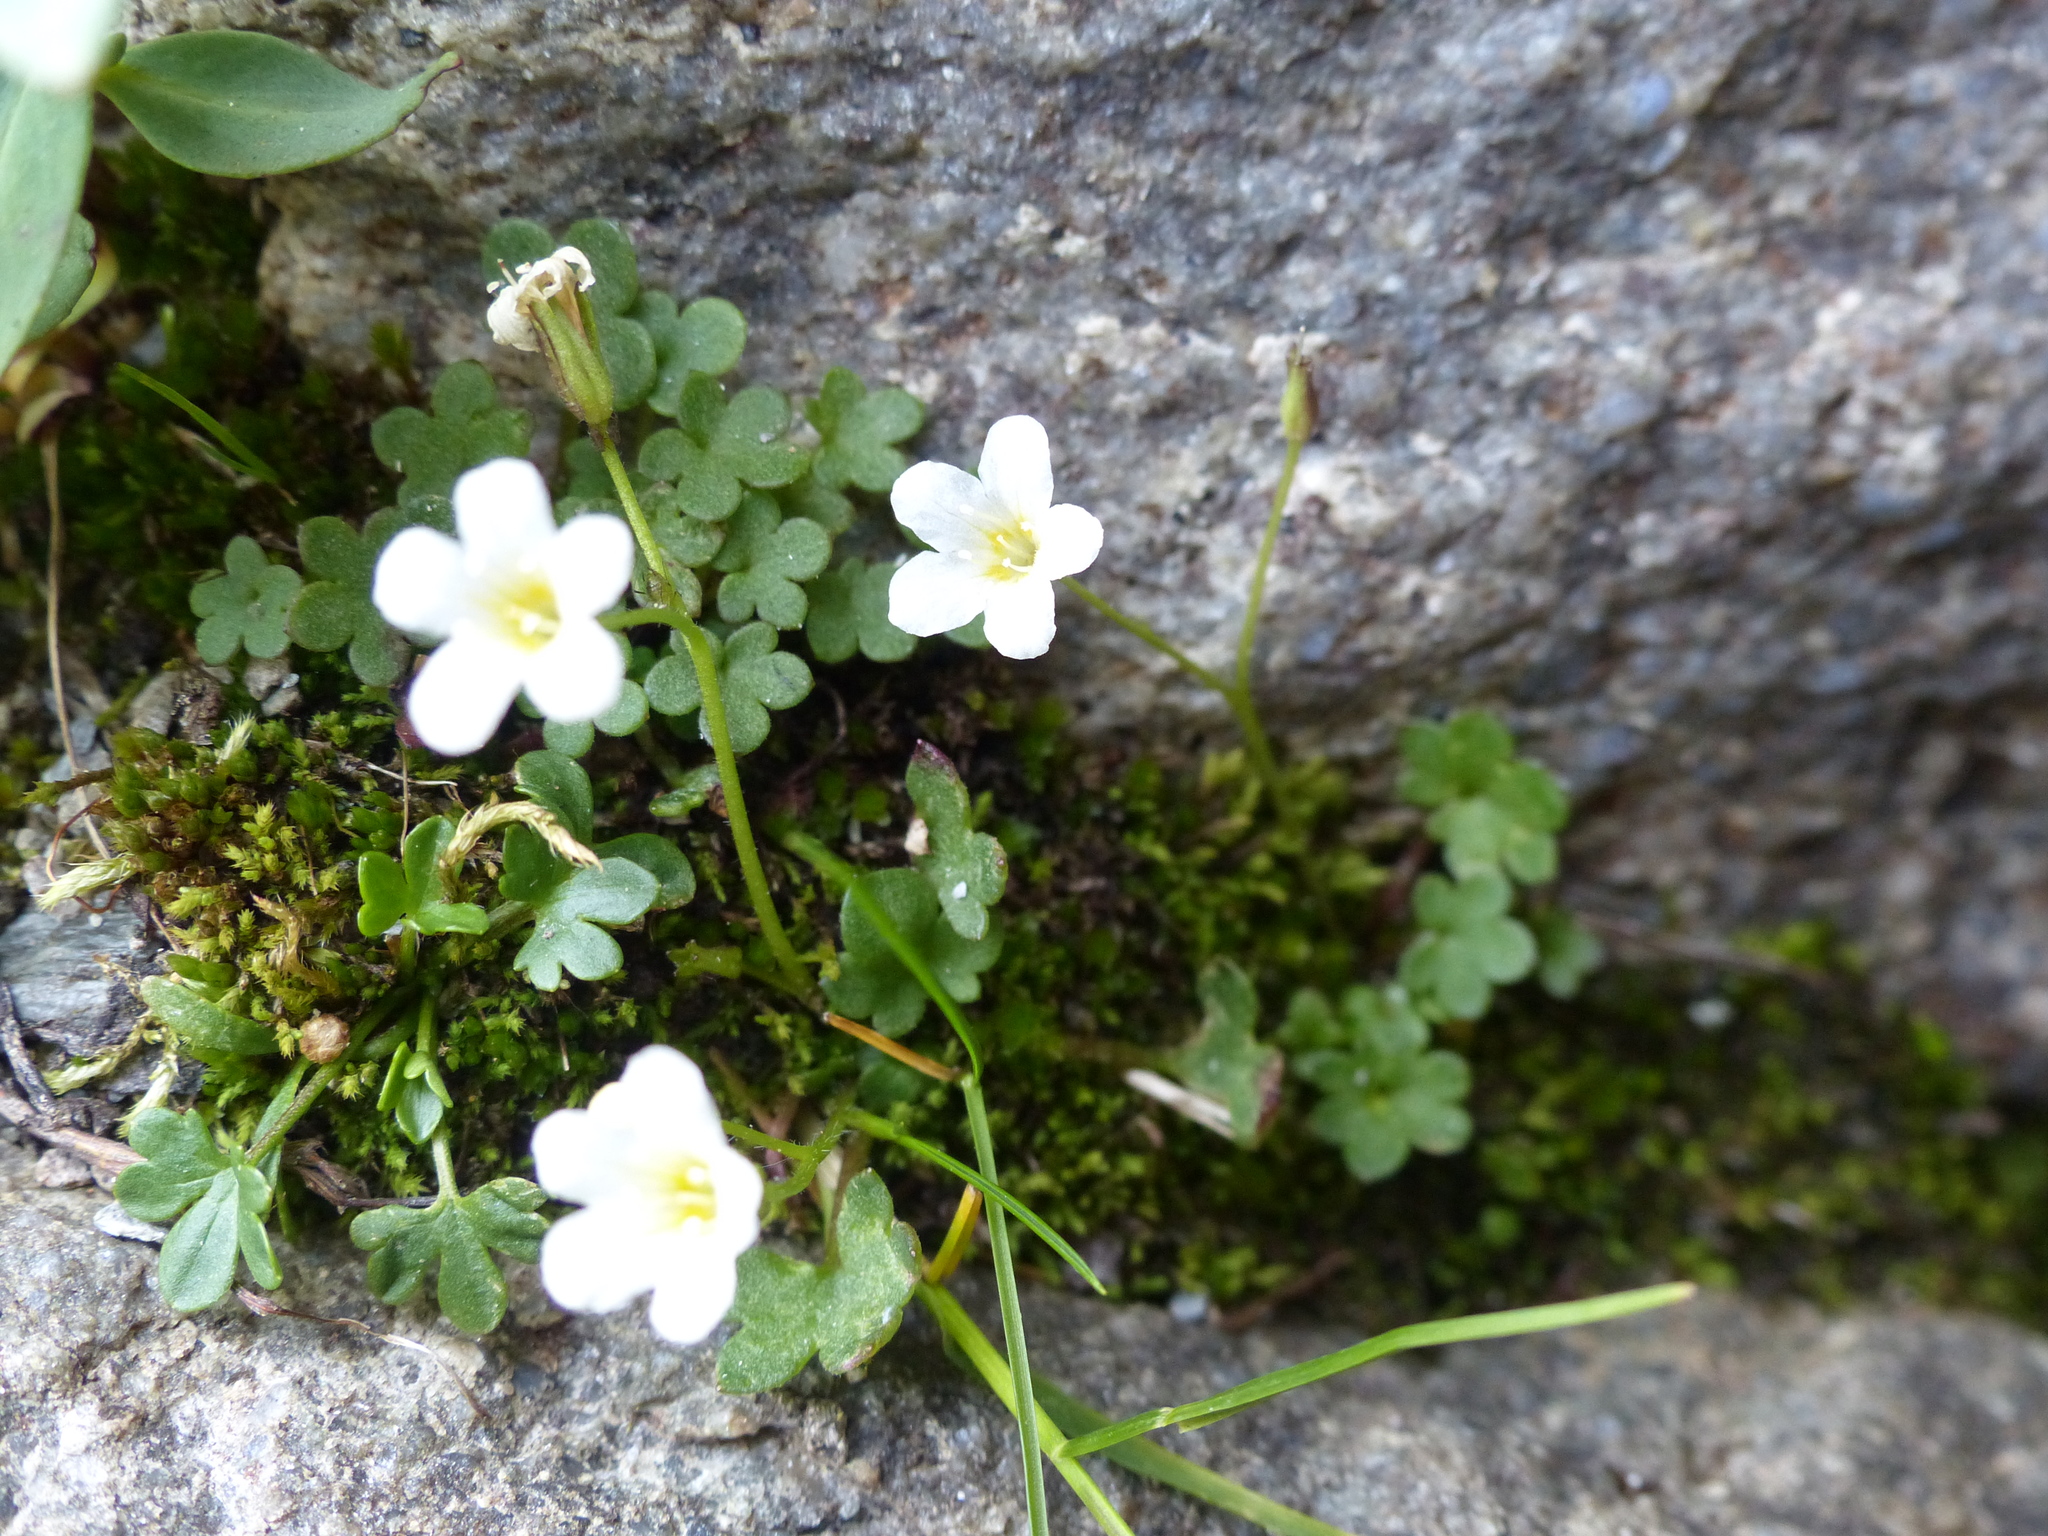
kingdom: Plantae
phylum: Tracheophyta
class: Magnoliopsida
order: Boraginales
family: Hydrophyllaceae
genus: Romanzoffia
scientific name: Romanzoffia sitchensis
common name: Sitka mistmaid
